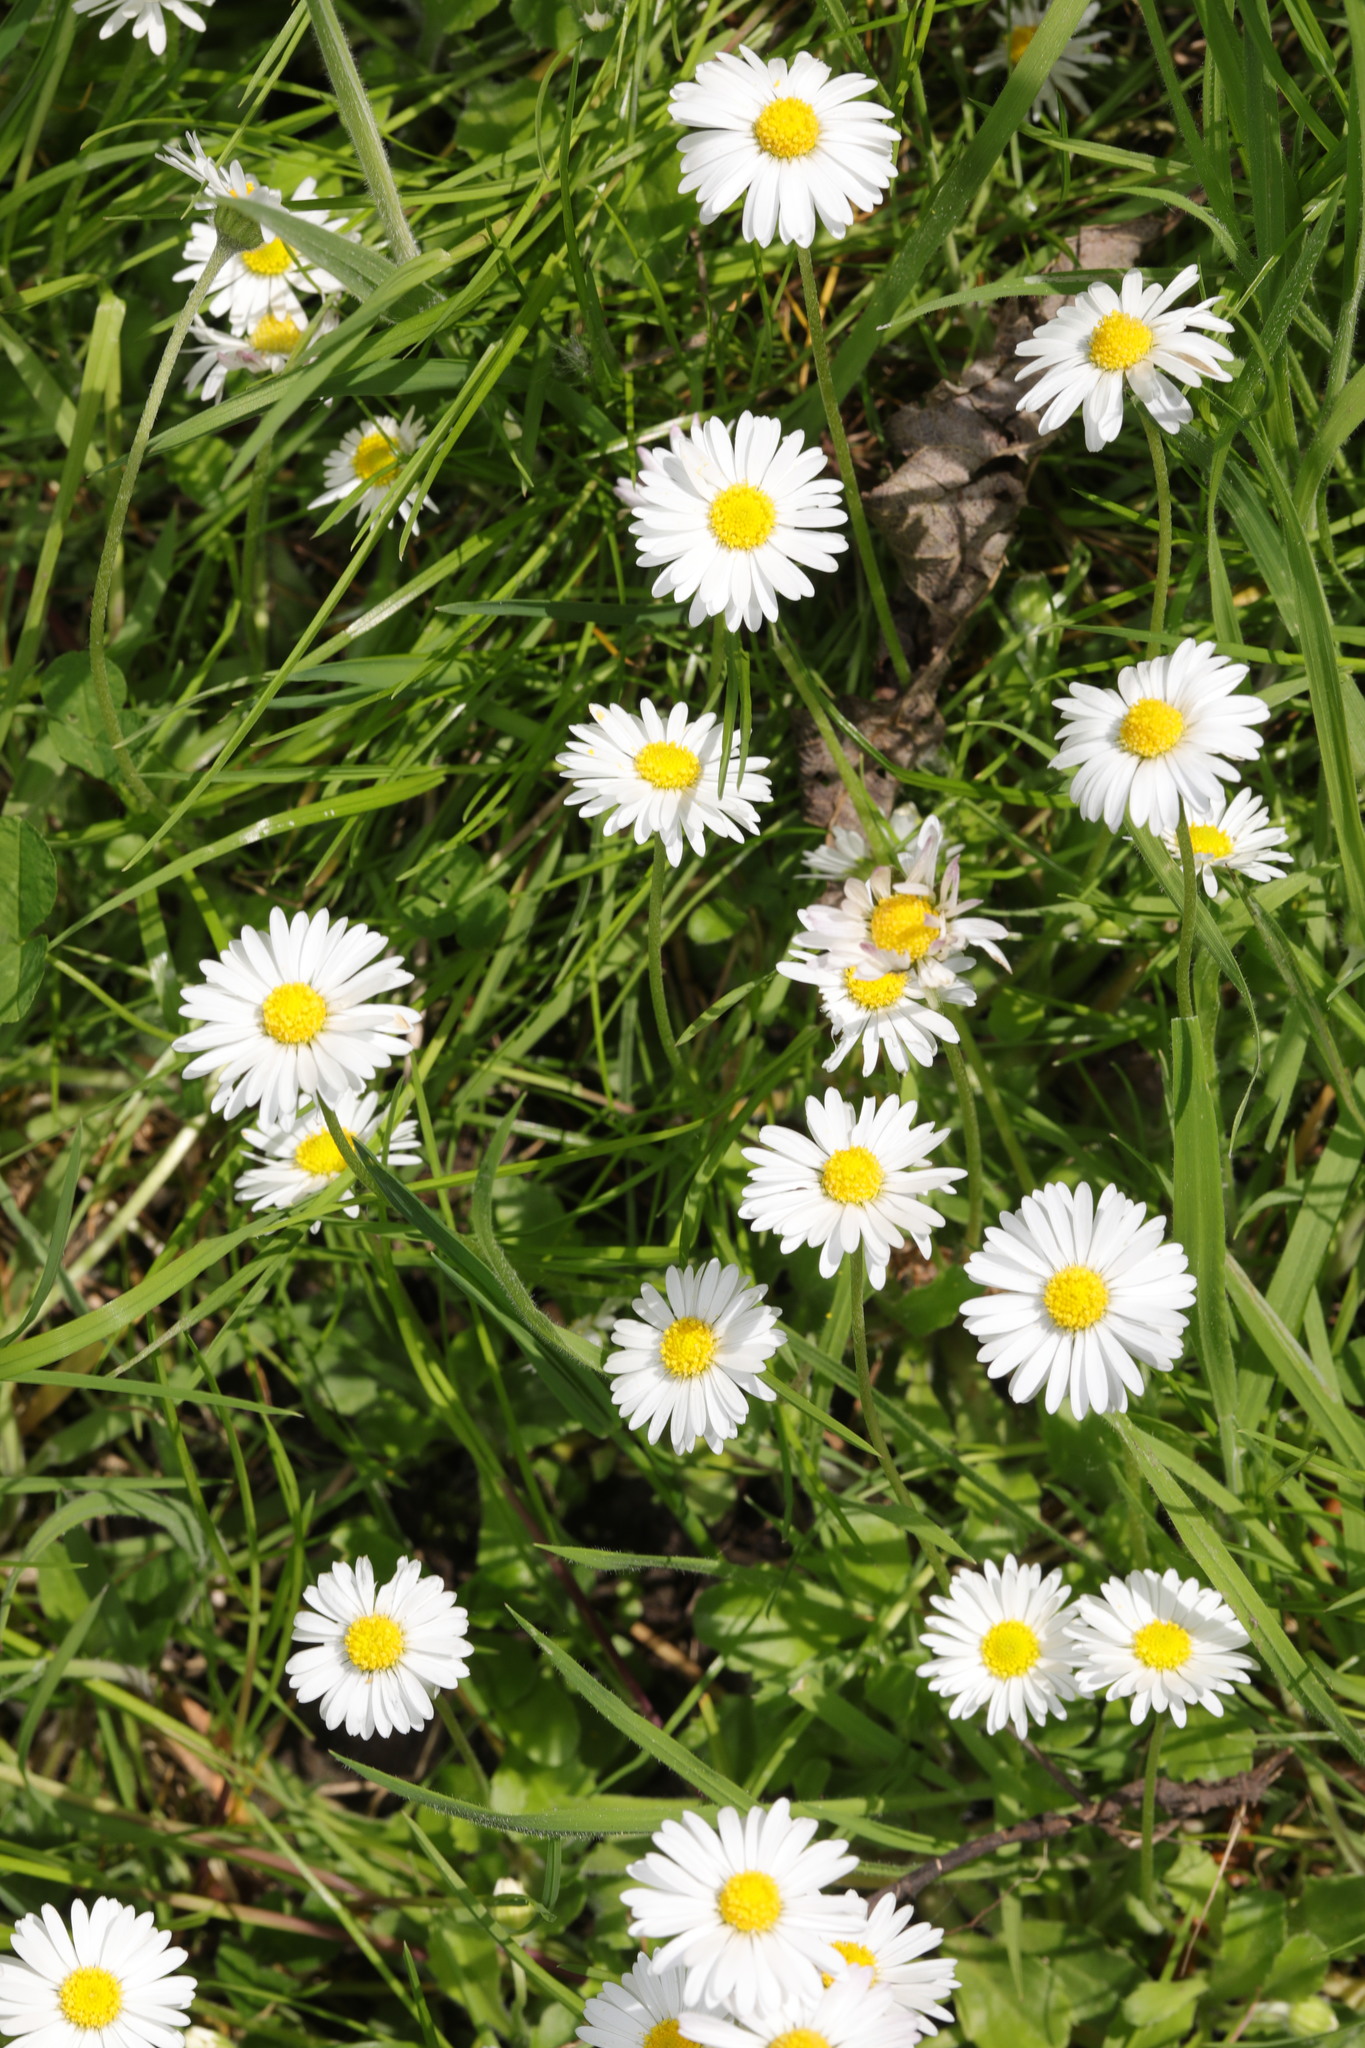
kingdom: Plantae
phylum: Tracheophyta
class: Magnoliopsida
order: Asterales
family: Asteraceae
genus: Bellis
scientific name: Bellis perennis
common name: Lawndaisy
